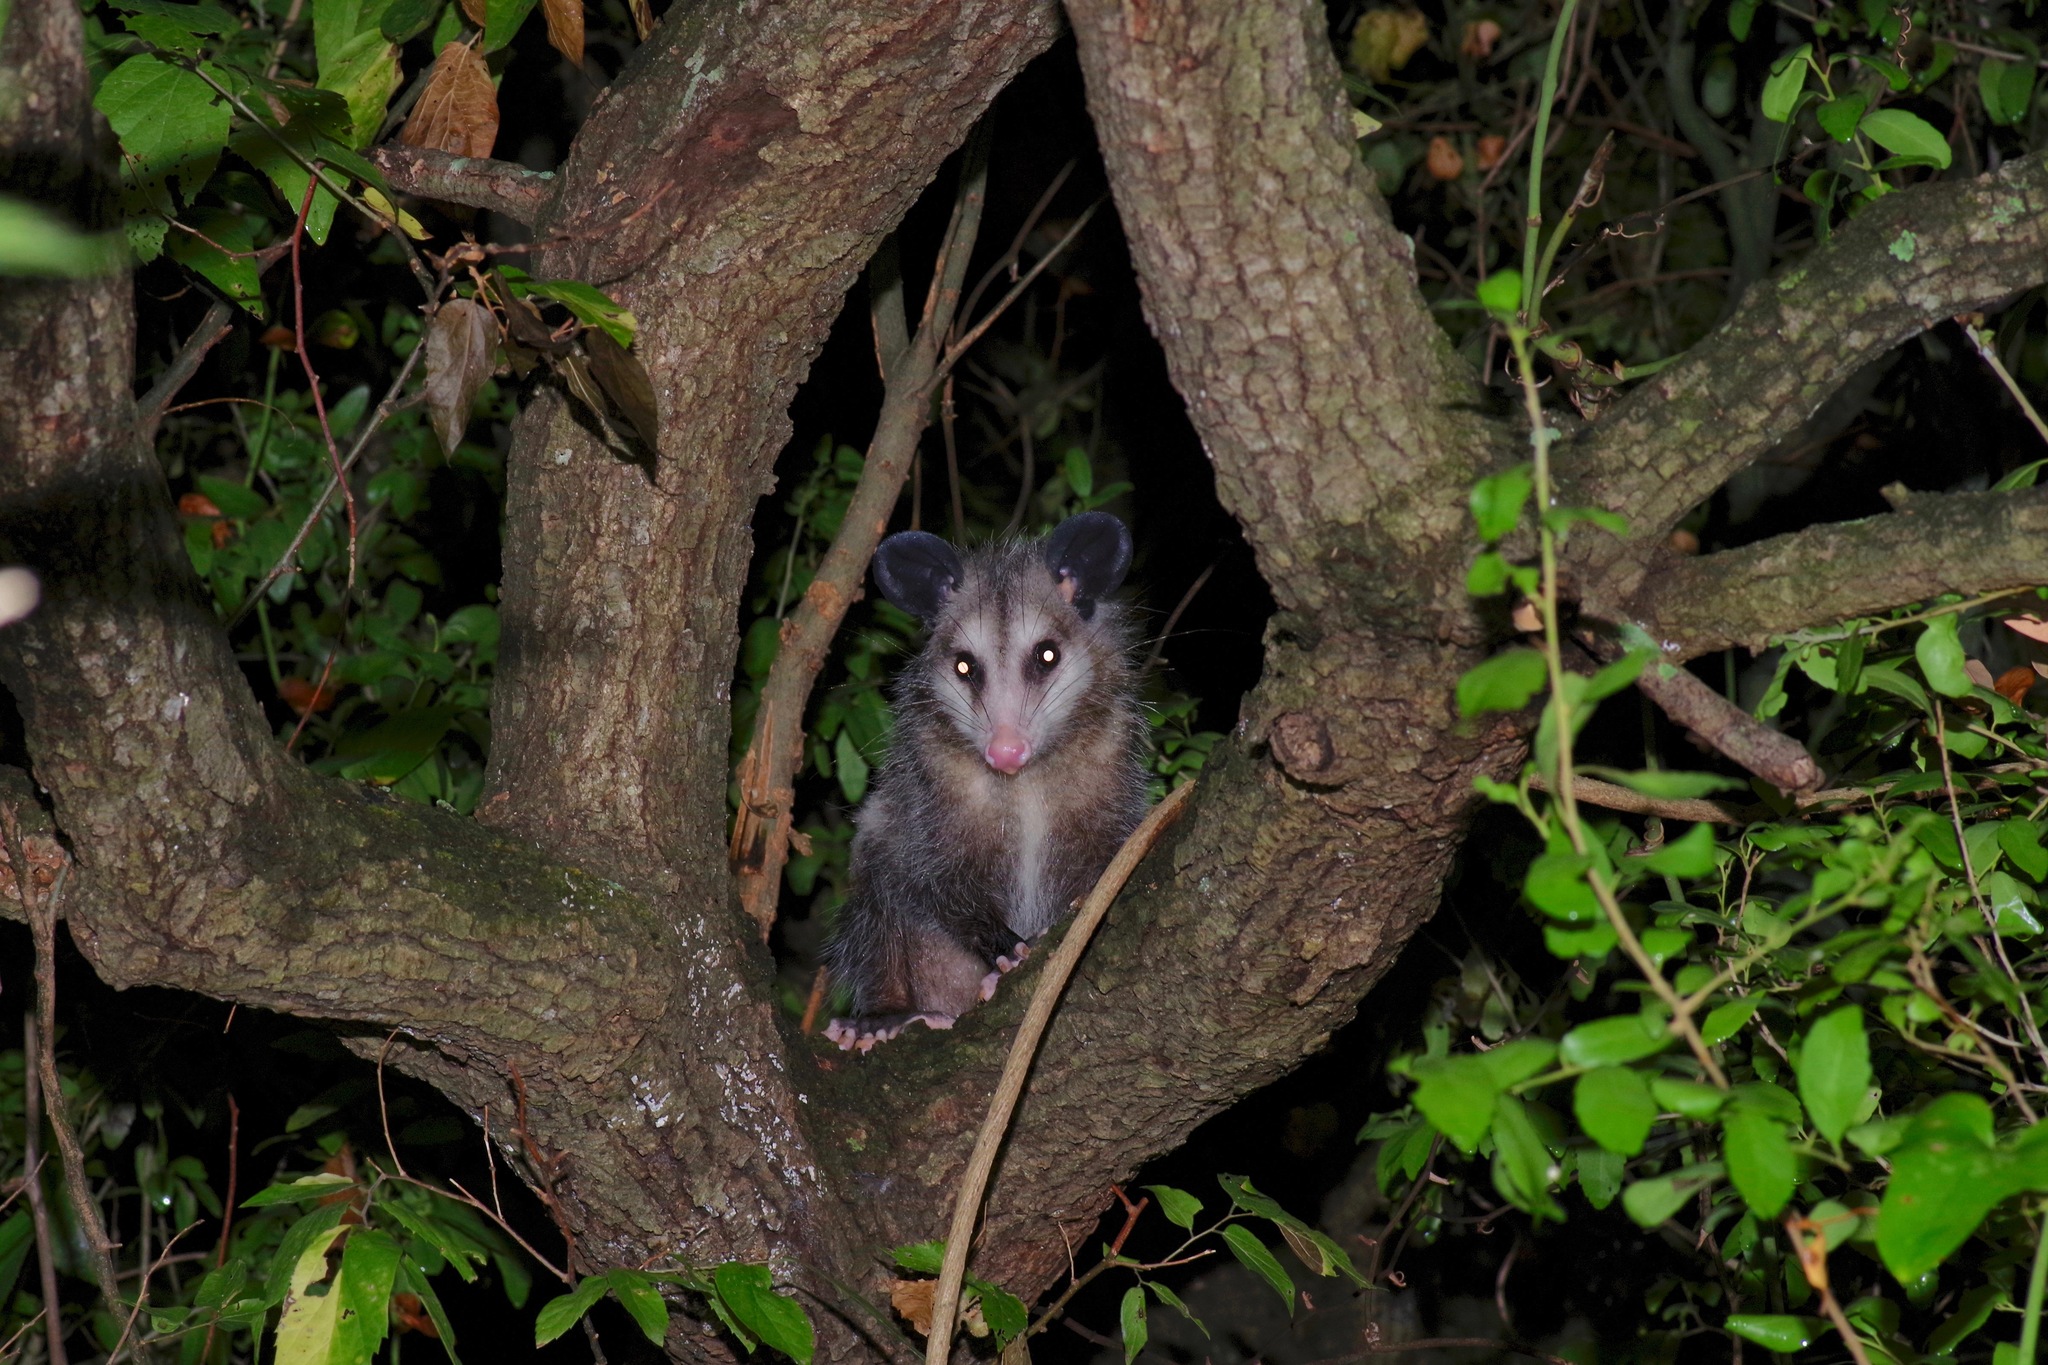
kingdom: Animalia
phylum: Chordata
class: Mammalia
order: Didelphimorphia
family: Didelphidae
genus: Didelphis
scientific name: Didelphis virginiana
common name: Virginia opossum
